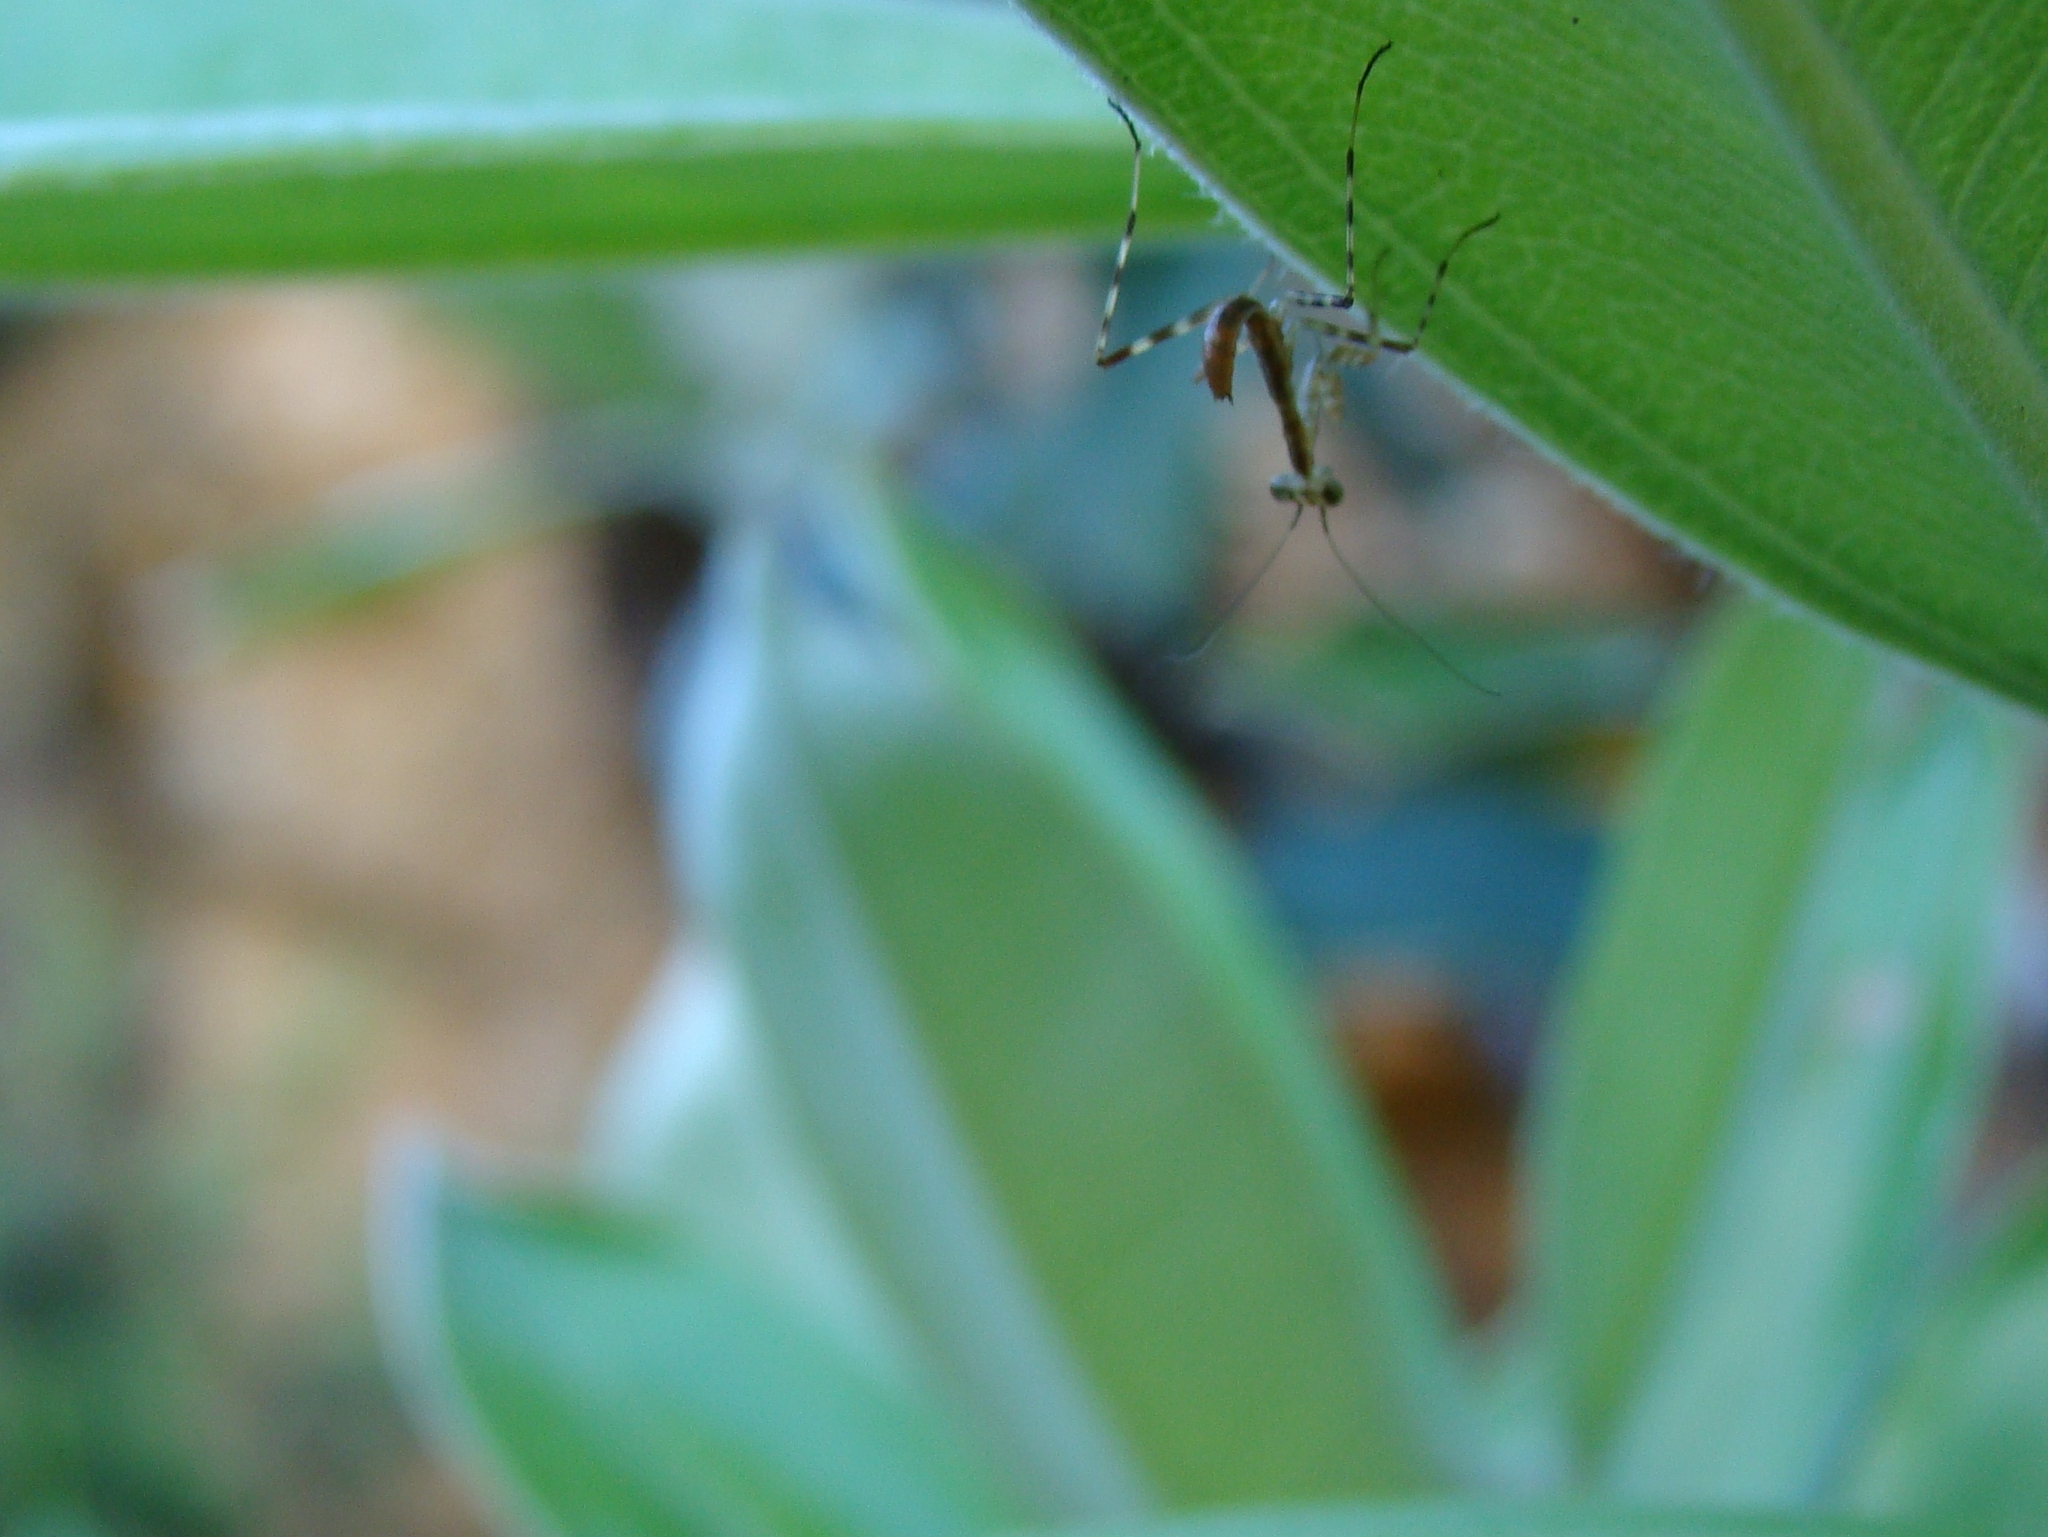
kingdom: Animalia
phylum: Arthropoda
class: Insecta
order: Mantodea
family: Miomantidae
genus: Miomantis
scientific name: Miomantis caffra
